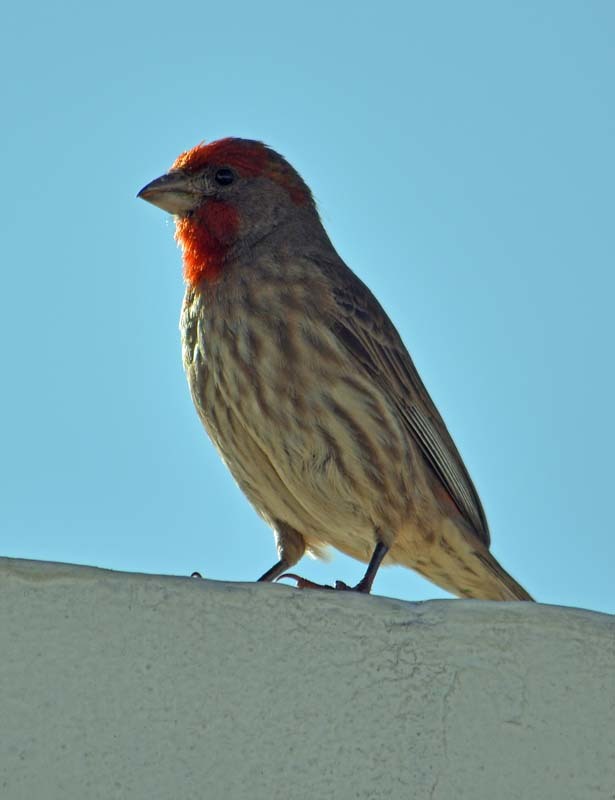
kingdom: Animalia
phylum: Chordata
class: Aves
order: Passeriformes
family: Fringillidae
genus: Haemorhous
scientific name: Haemorhous mexicanus
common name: House finch
